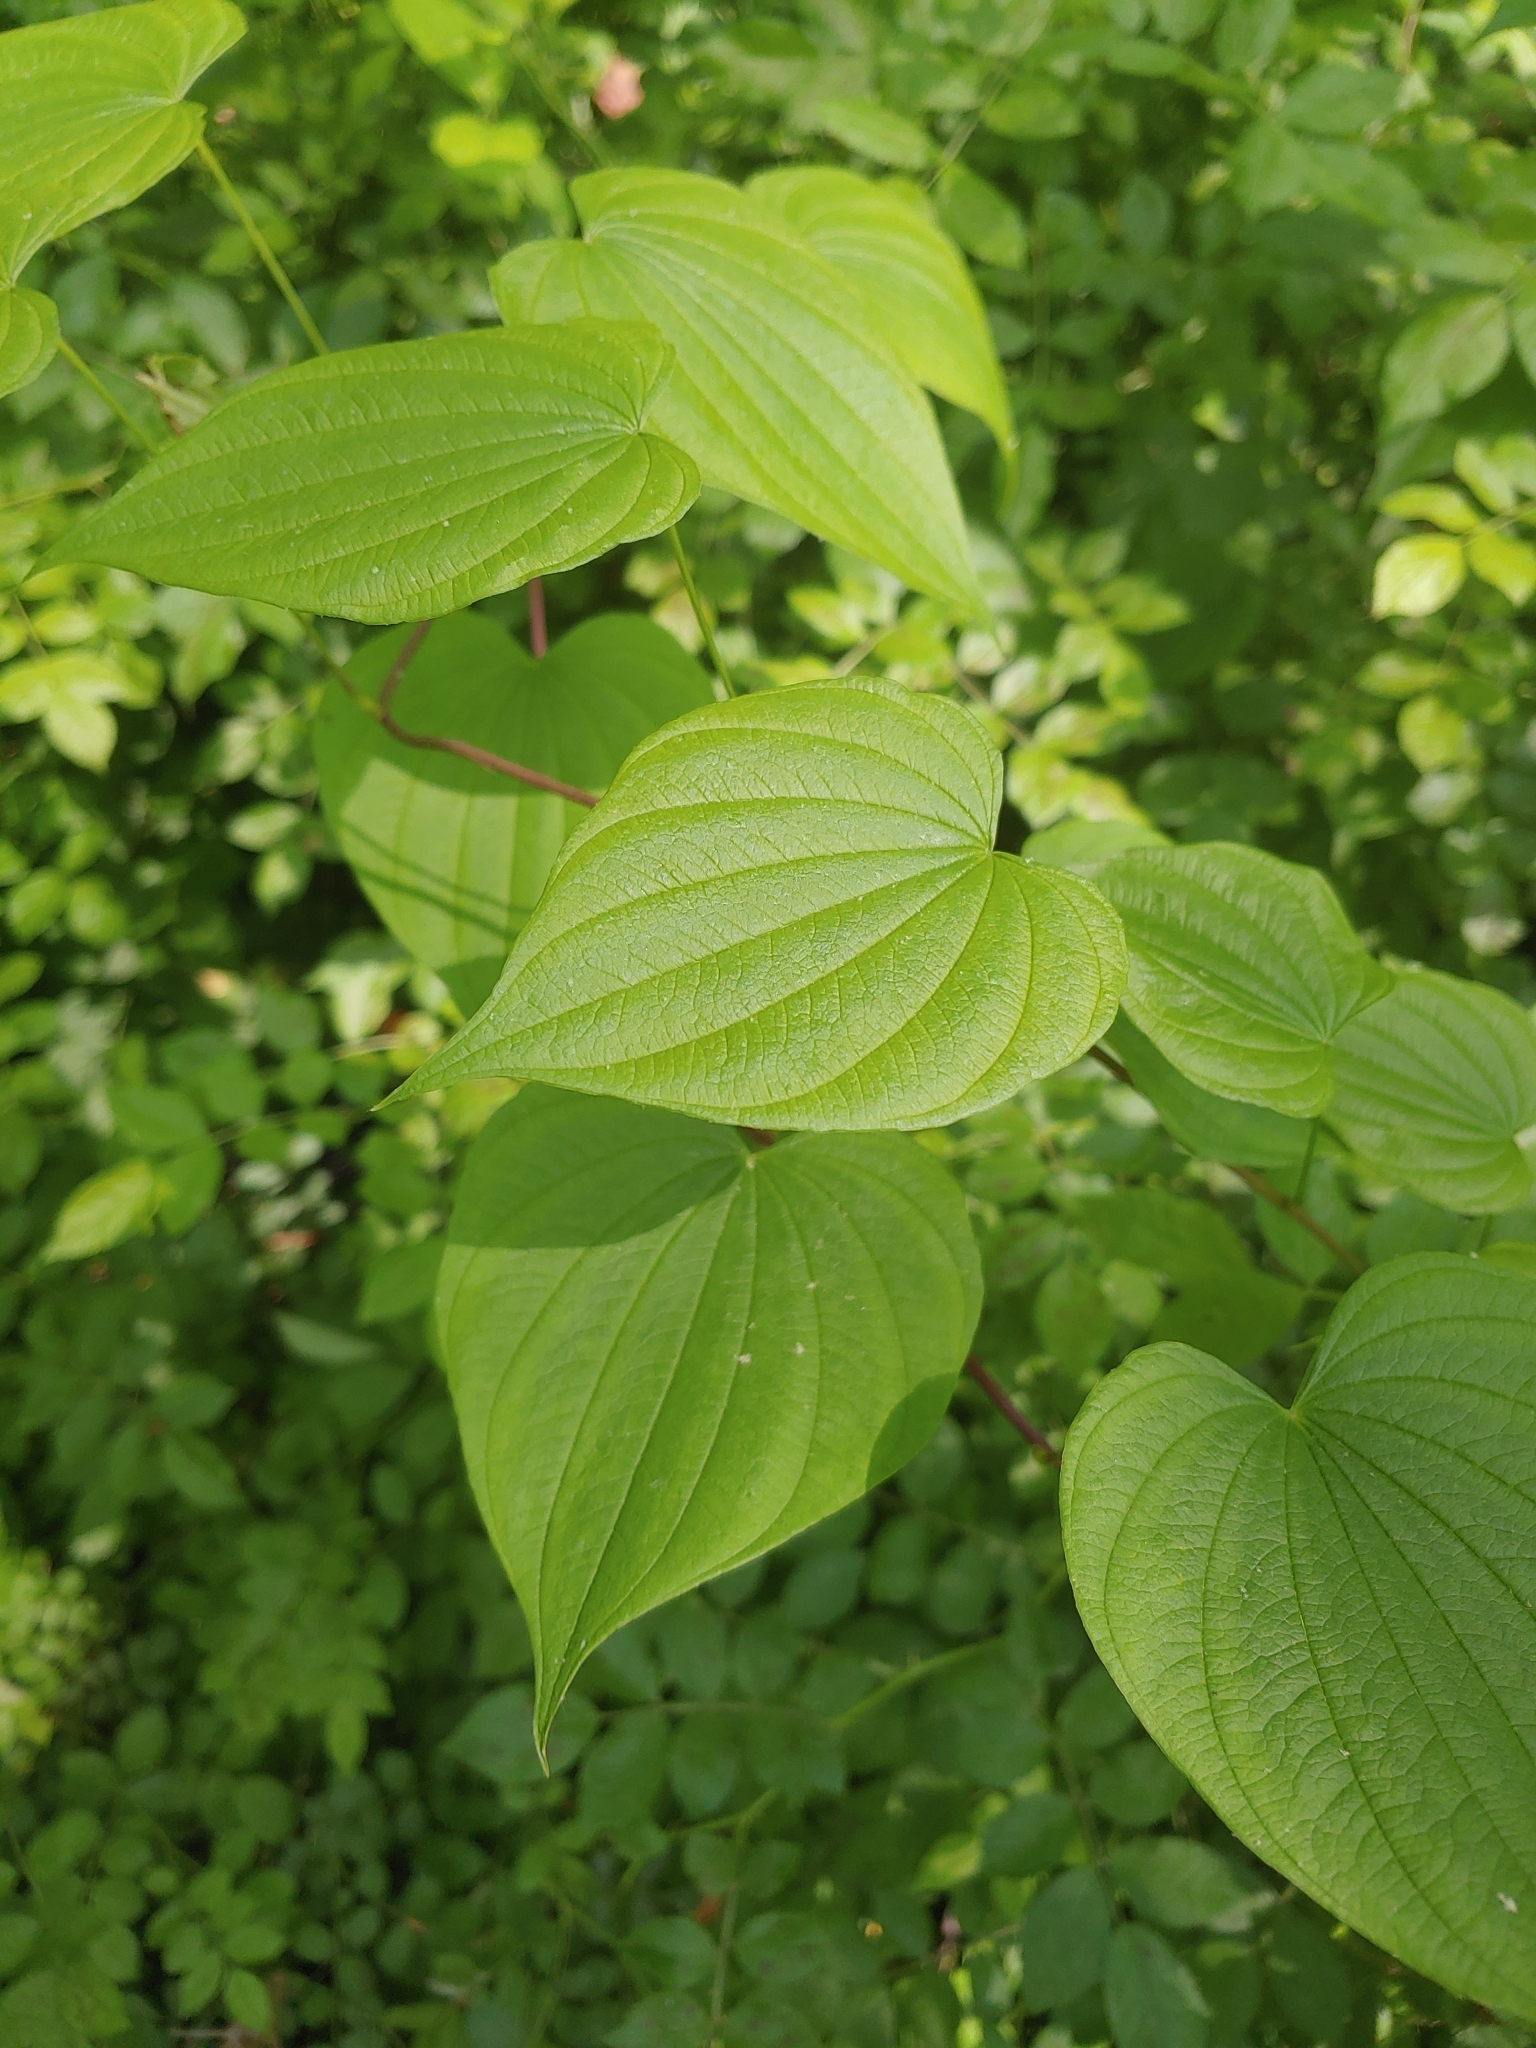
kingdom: Plantae
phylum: Tracheophyta
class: Liliopsida
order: Dioscoreales
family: Dioscoreaceae
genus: Dioscorea
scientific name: Dioscorea villosa
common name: Wild yam
